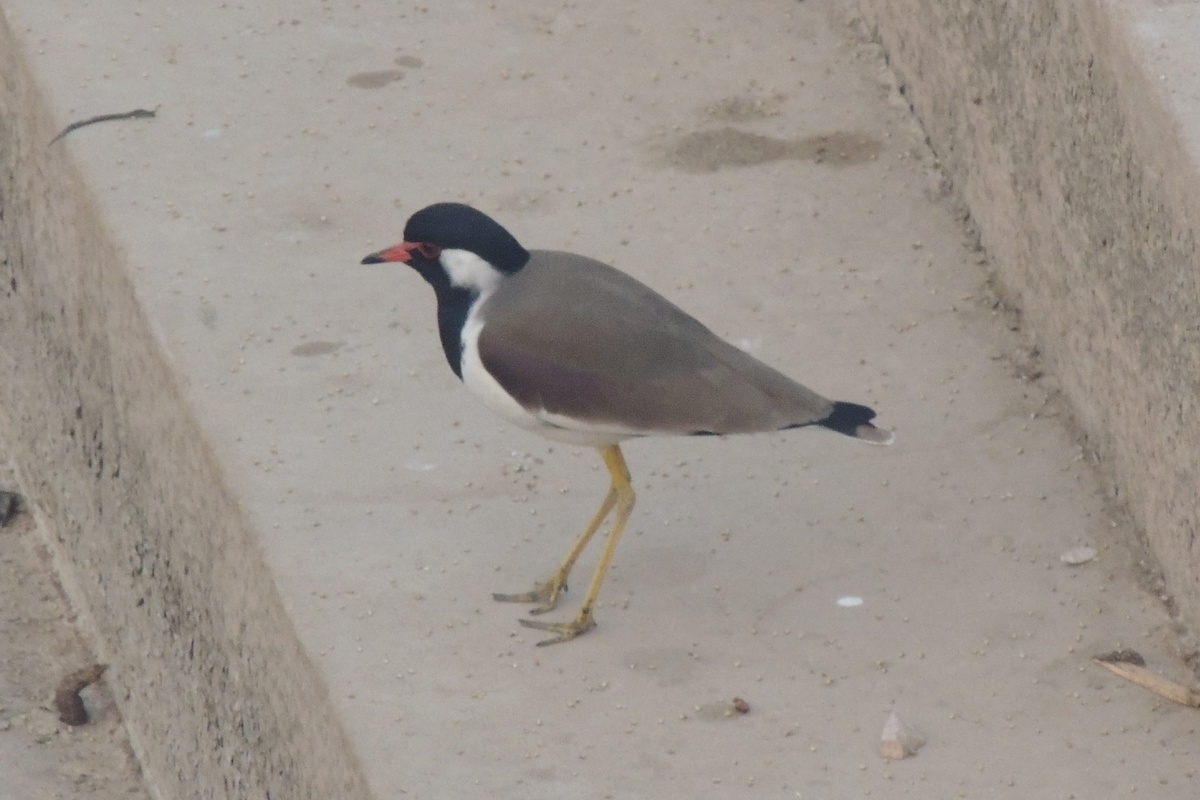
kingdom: Animalia
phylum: Chordata
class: Aves
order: Charadriiformes
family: Charadriidae
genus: Vanellus
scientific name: Vanellus indicus
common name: Red-wattled lapwing
